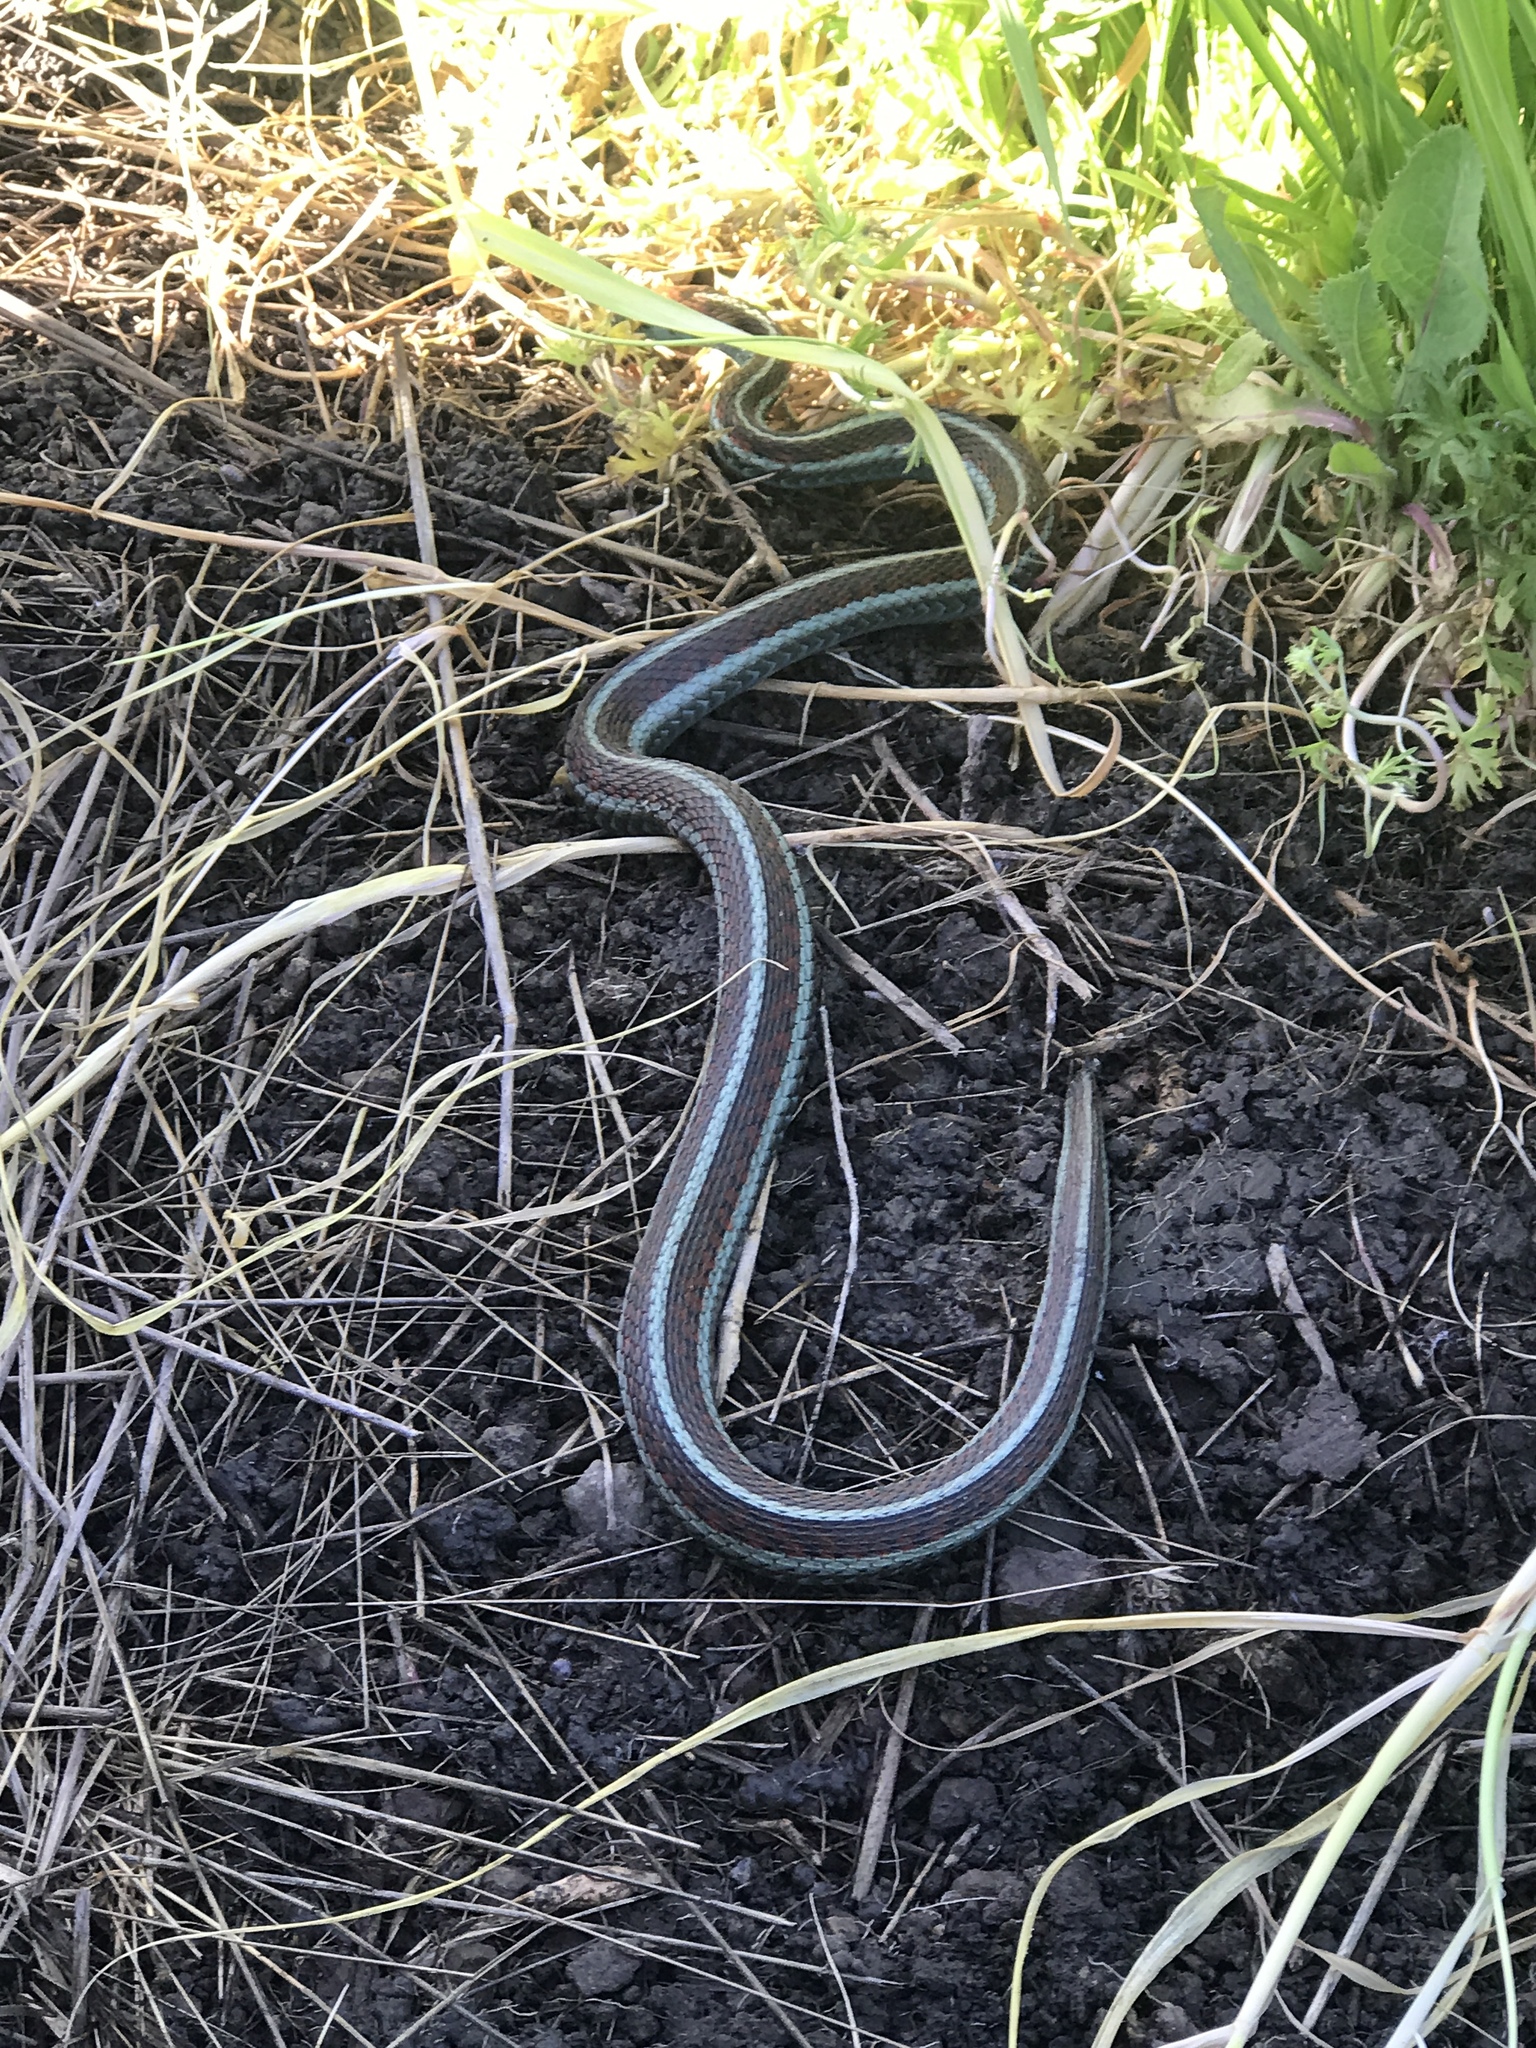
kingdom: Animalia
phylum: Chordata
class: Squamata
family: Colubridae
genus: Thamnophis
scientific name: Thamnophis sirtalis
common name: Common garter snake
